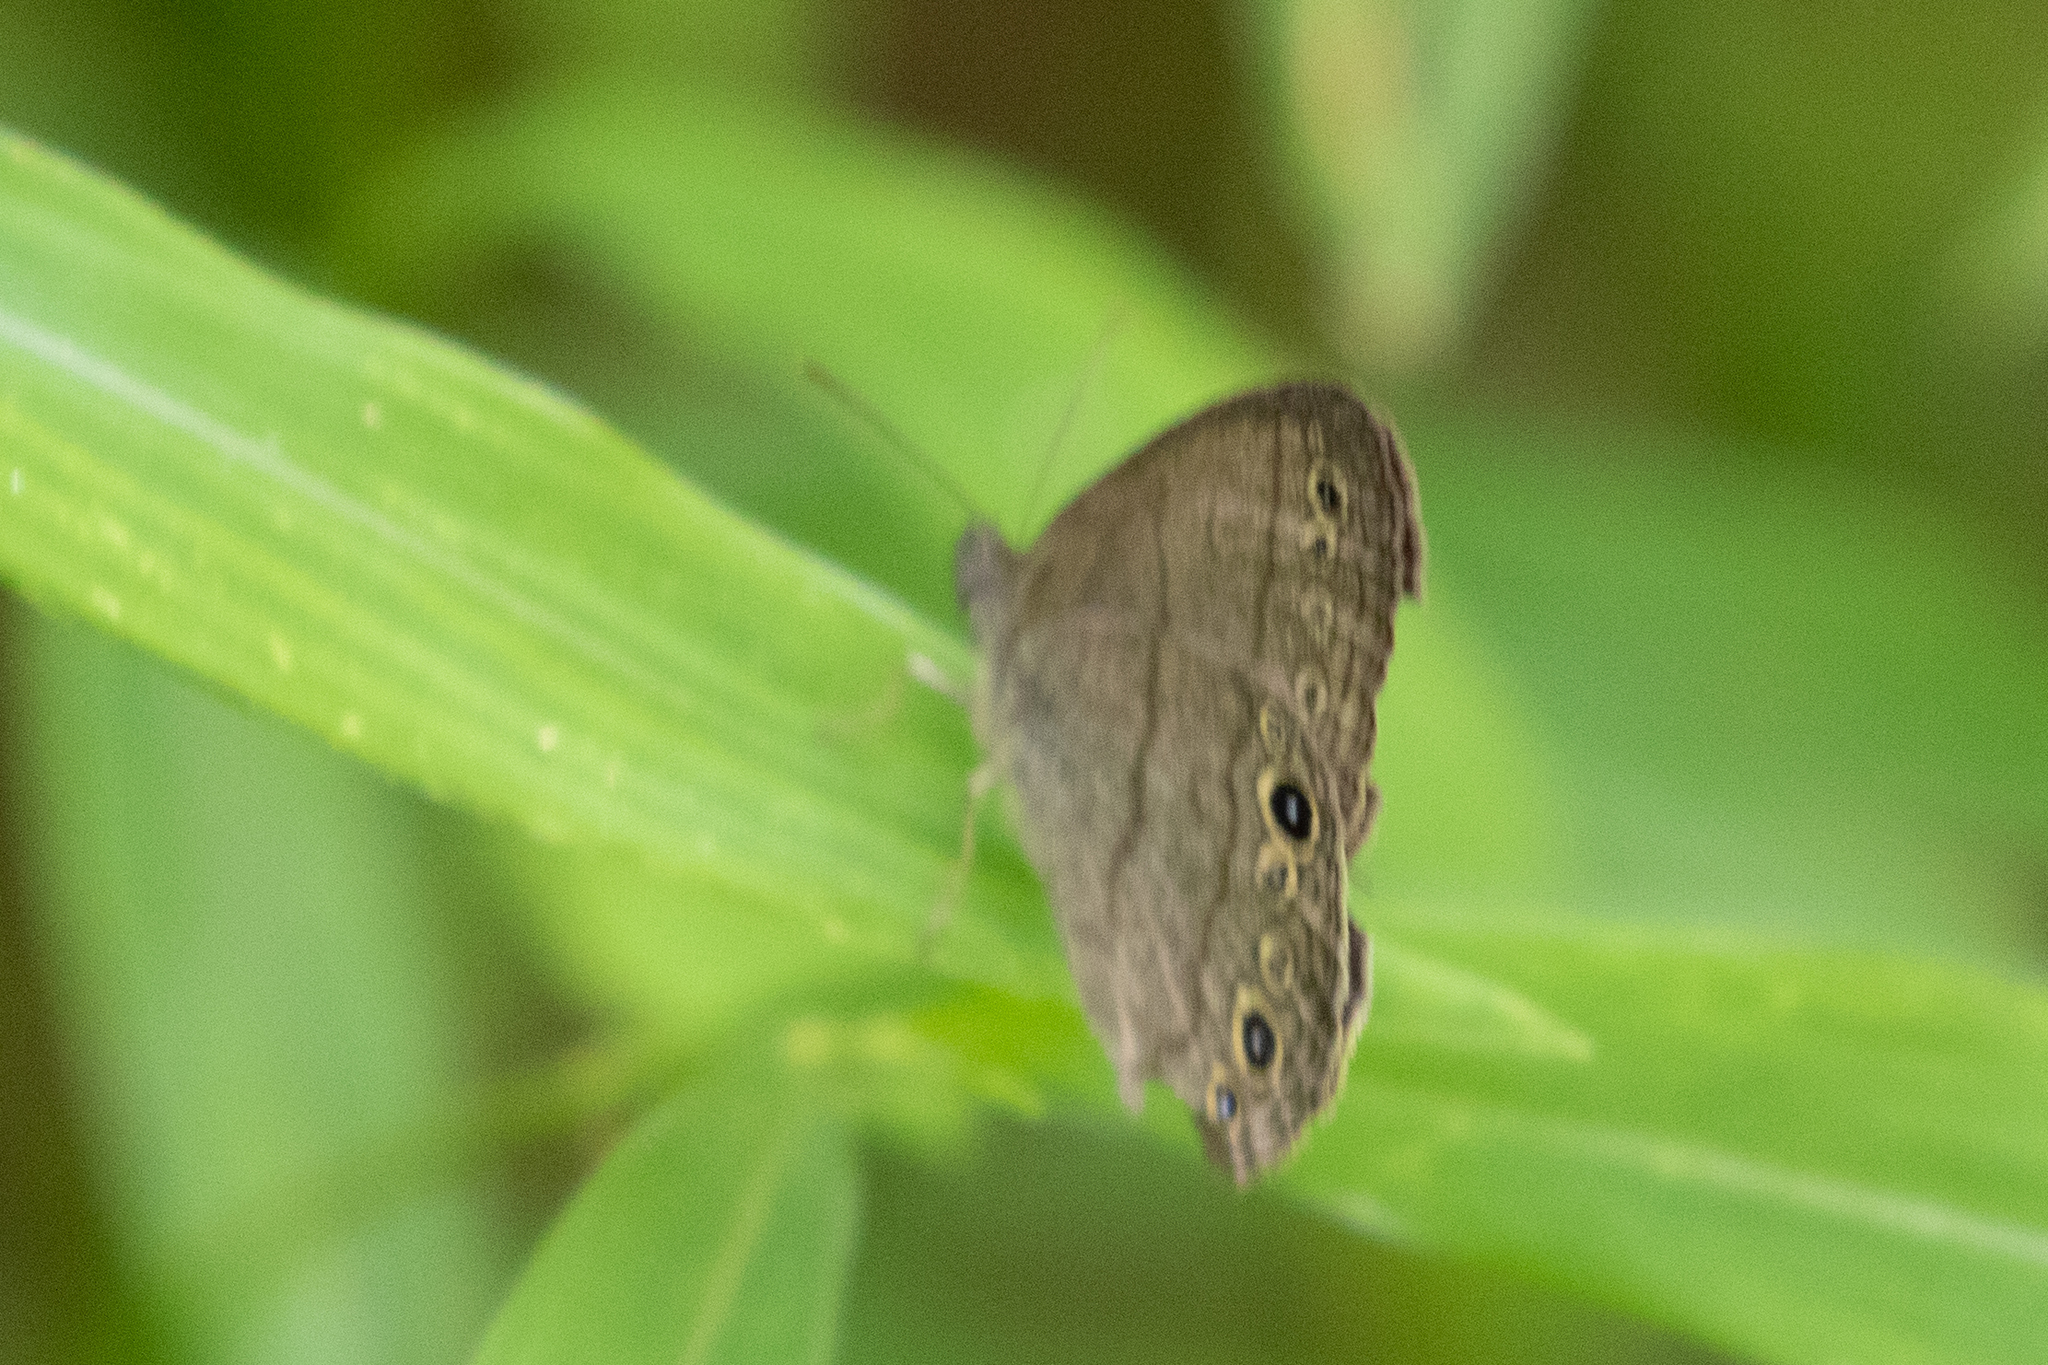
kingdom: Animalia
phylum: Arthropoda
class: Insecta
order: Lepidoptera
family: Nymphalidae
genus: Hermeuptychia
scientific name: Hermeuptychia hermes
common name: Hermes satyr
